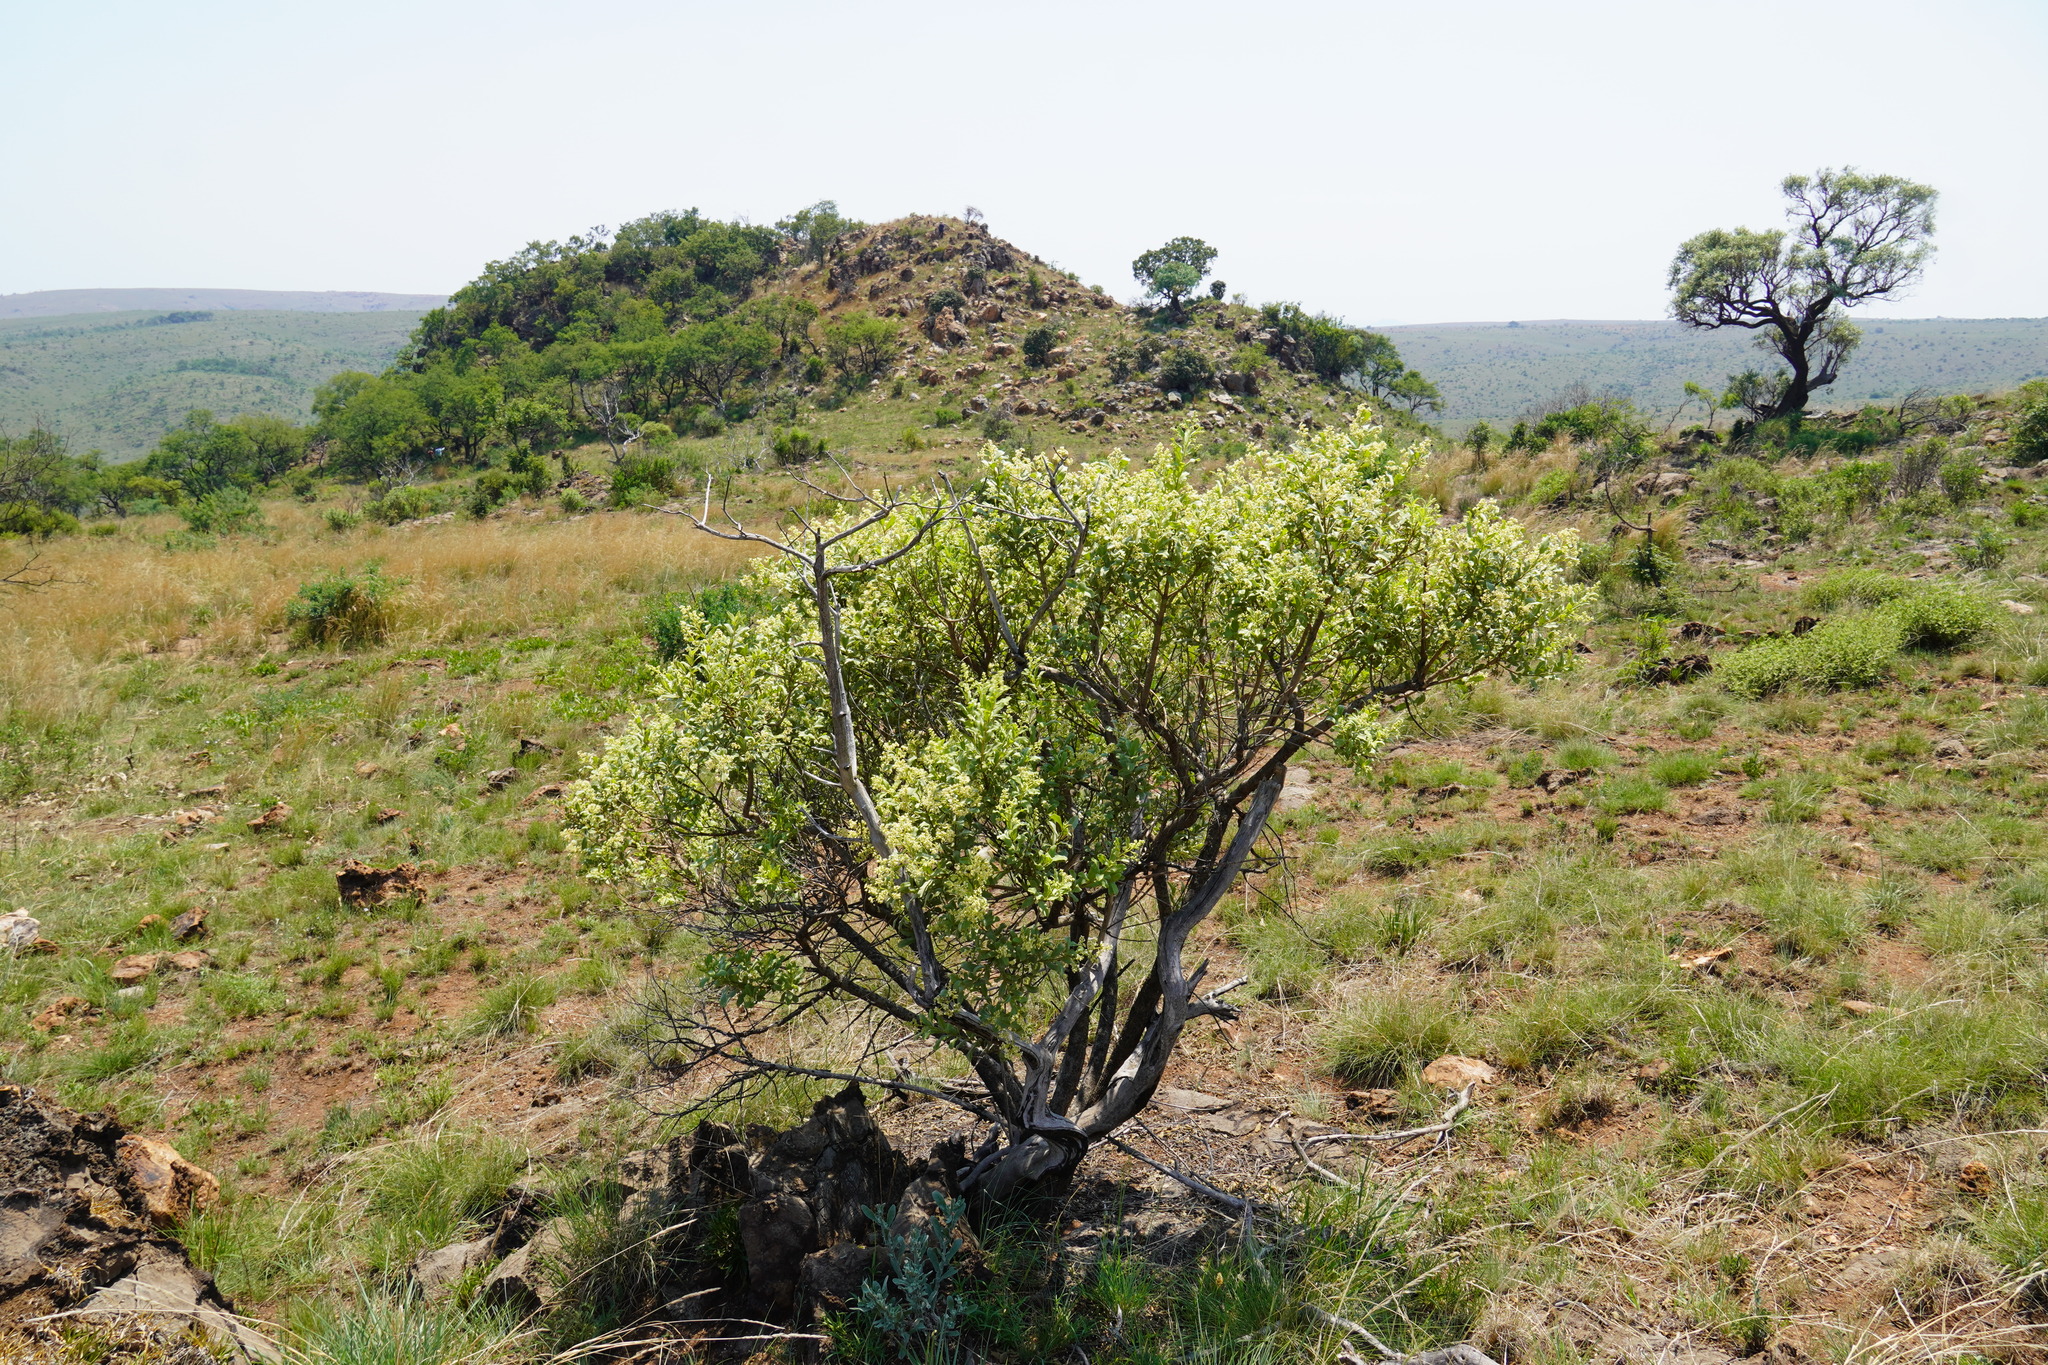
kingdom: Plantae
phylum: Tracheophyta
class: Magnoliopsida
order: Sapindales
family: Anacardiaceae
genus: Ozoroa
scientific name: Ozoroa paniculosa
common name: Bushveld ozoroa
